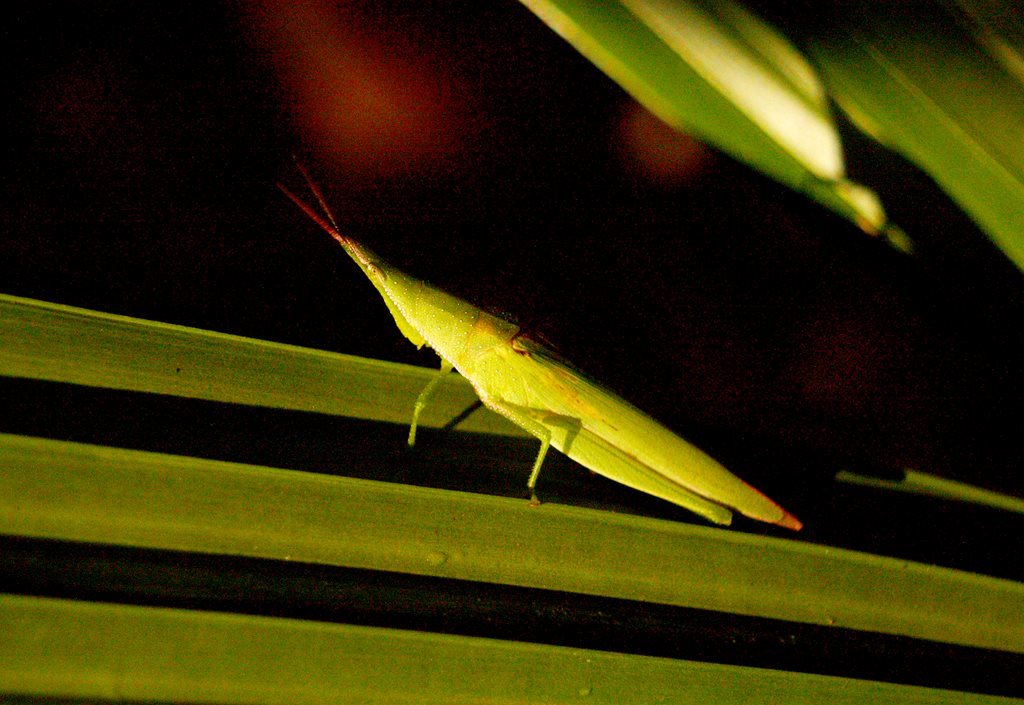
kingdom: Animalia
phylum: Arthropoda
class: Insecta
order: Orthoptera
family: Pyrgomorphidae
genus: Atractomorpha
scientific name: Atractomorpha similis
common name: Northern grass pyrgomorph
